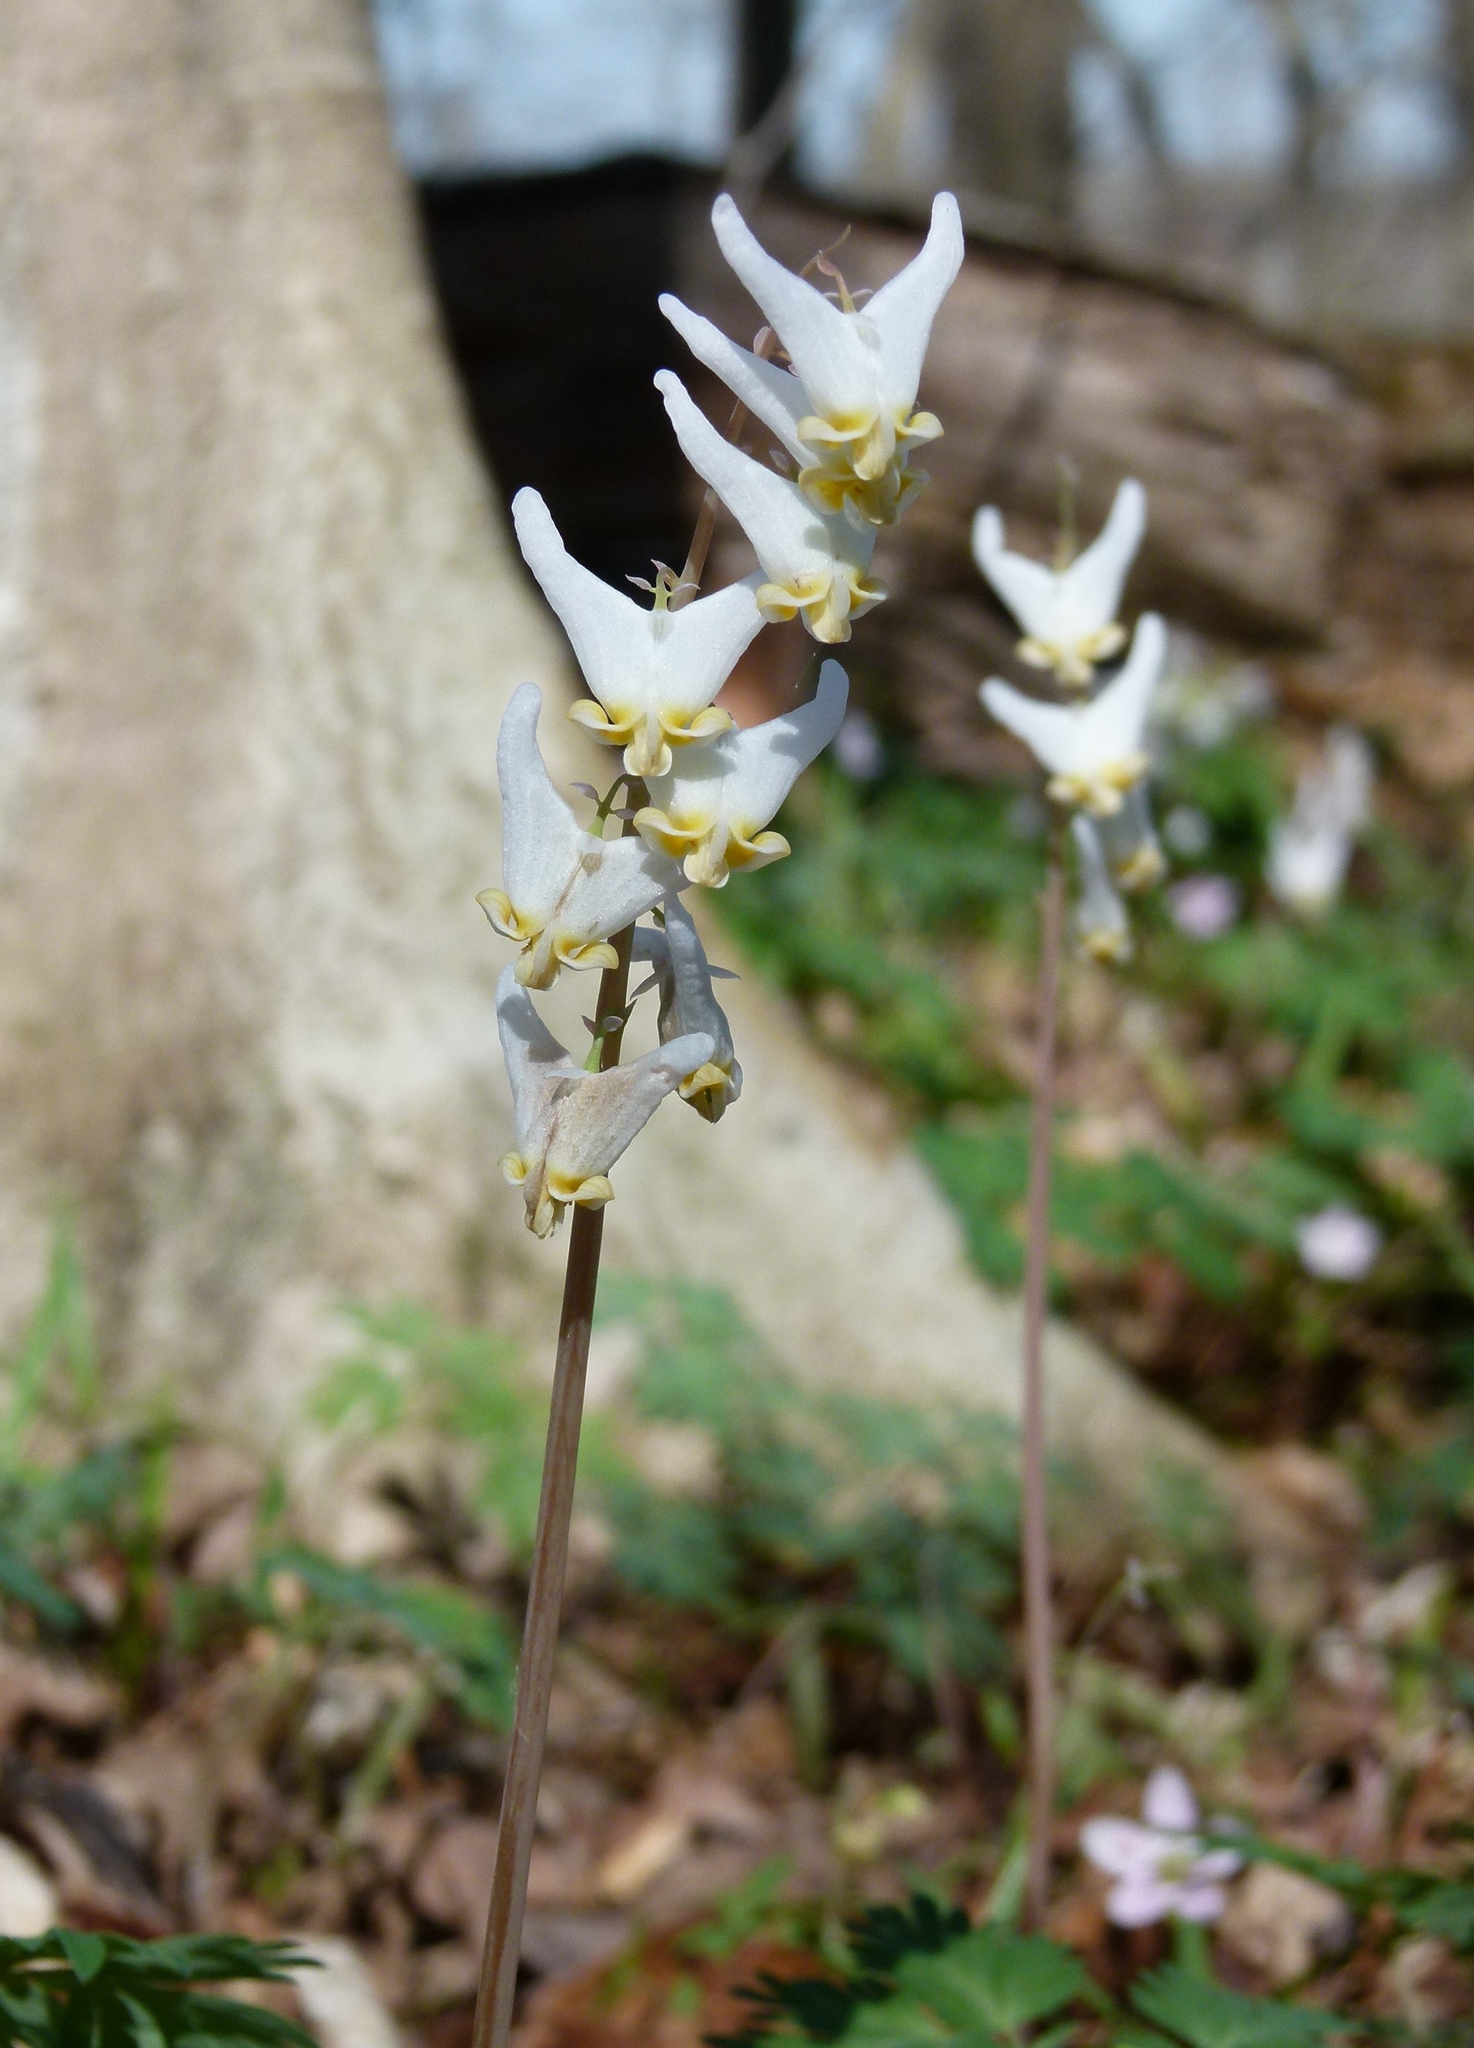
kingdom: Plantae
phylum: Tracheophyta
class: Magnoliopsida
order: Ranunculales
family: Papaveraceae
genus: Dicentra
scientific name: Dicentra cucullaria
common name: Dutchman's breeches
